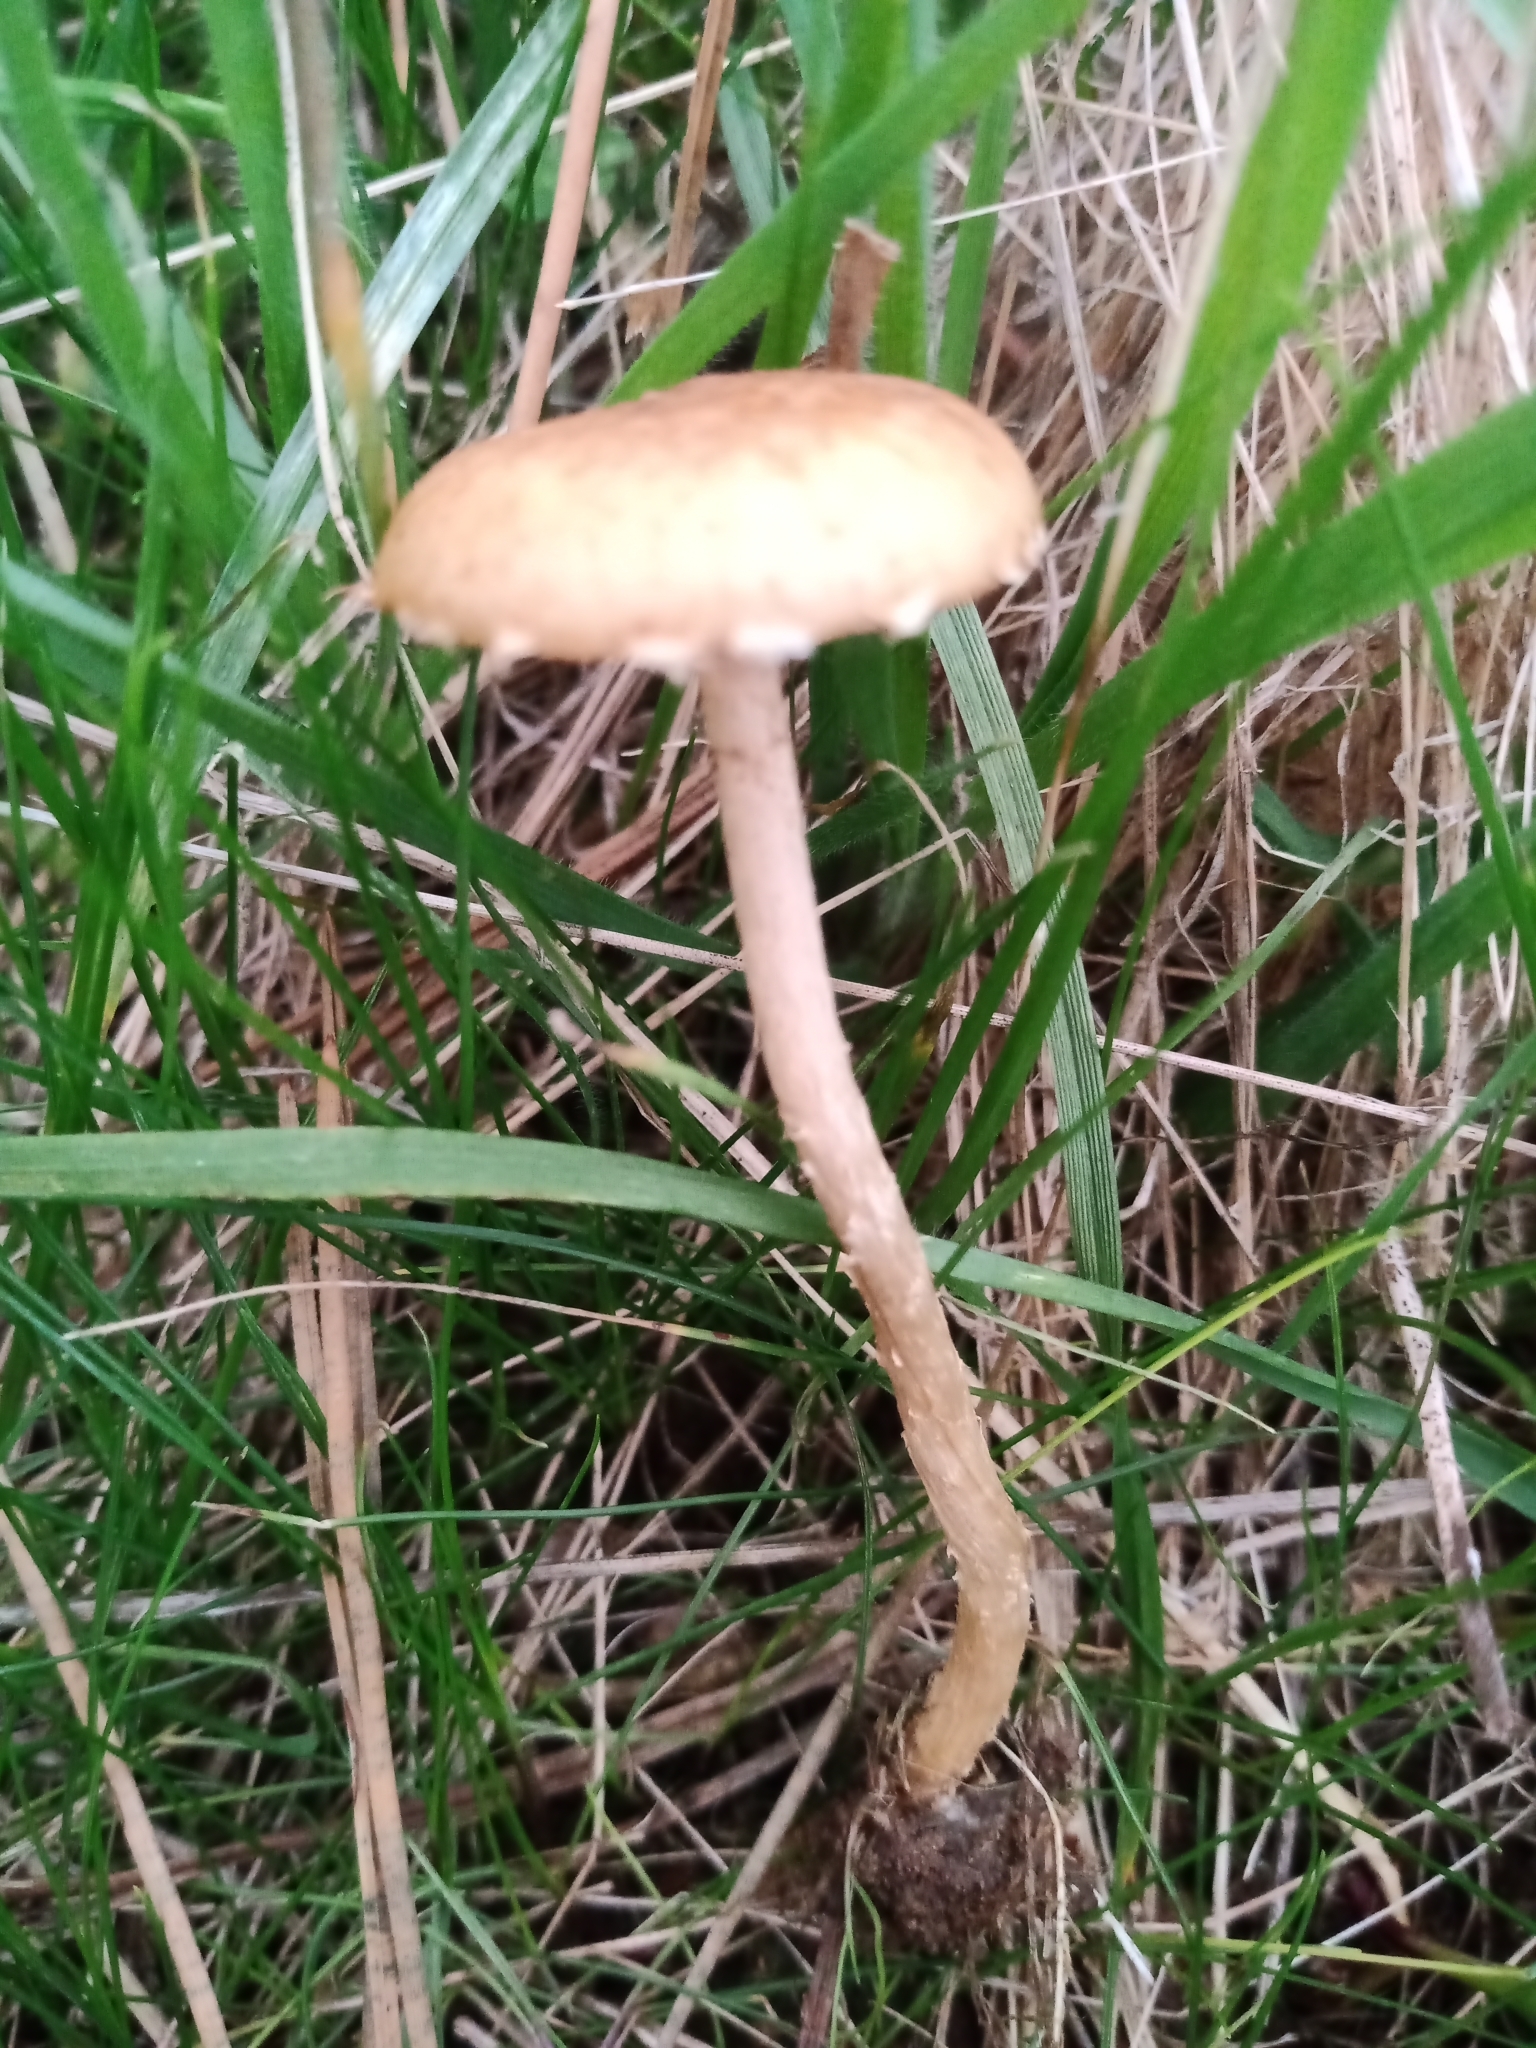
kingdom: Fungi
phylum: Basidiomycota
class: Agaricomycetes
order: Agaricales
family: Tubariaceae
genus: Tubaria
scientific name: Tubaria furfuracea
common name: Scurfy twiglet
